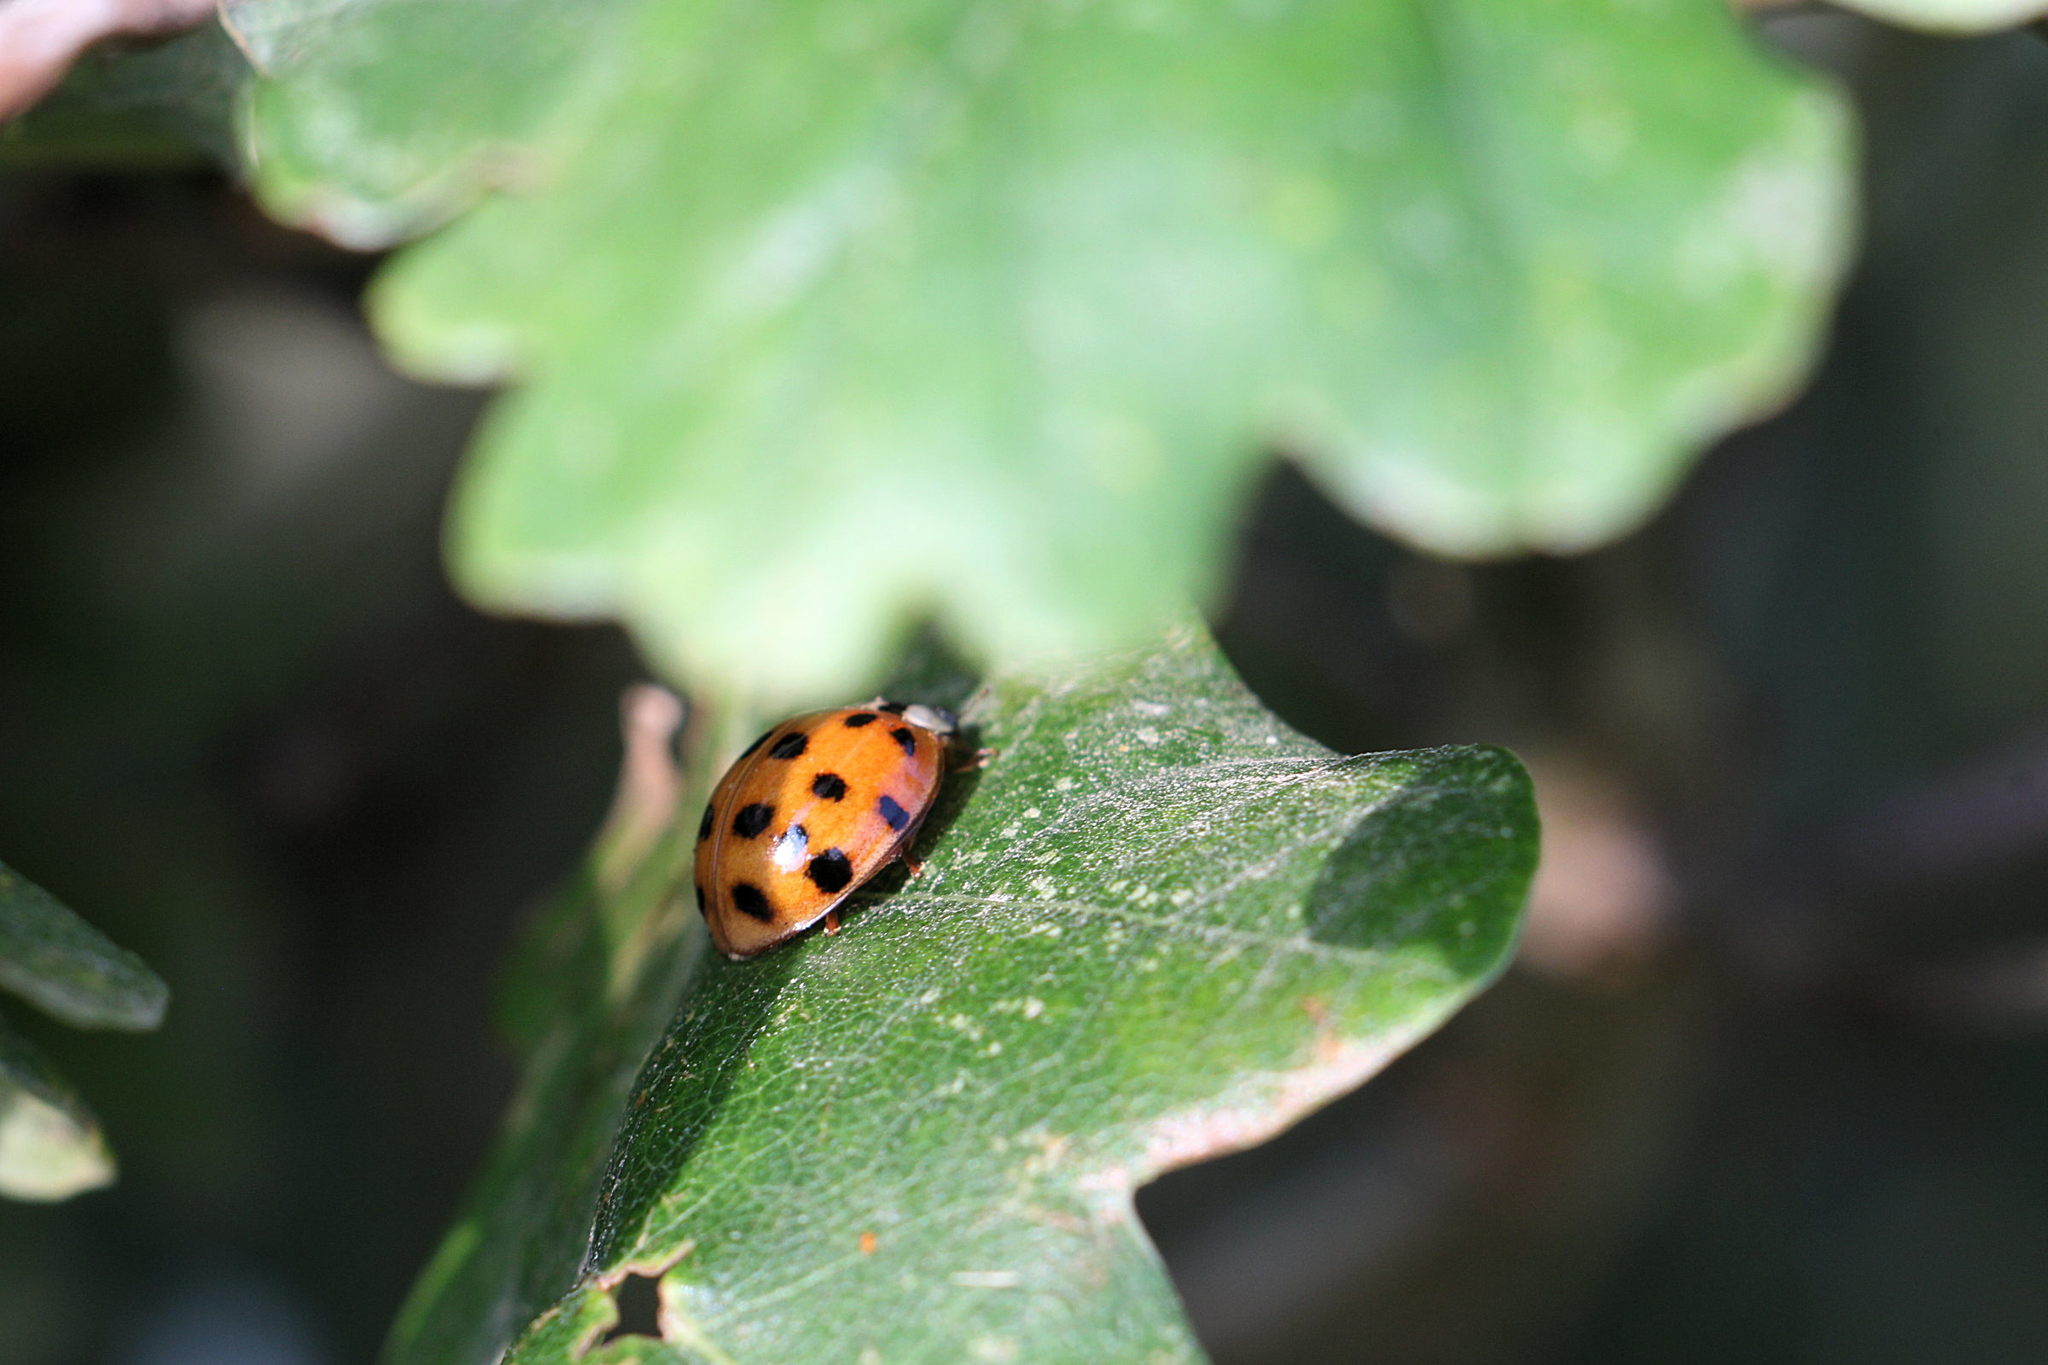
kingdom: Animalia
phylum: Arthropoda
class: Insecta
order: Coleoptera
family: Coccinellidae
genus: Harmonia
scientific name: Harmonia axyridis
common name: Harlequin ladybird
